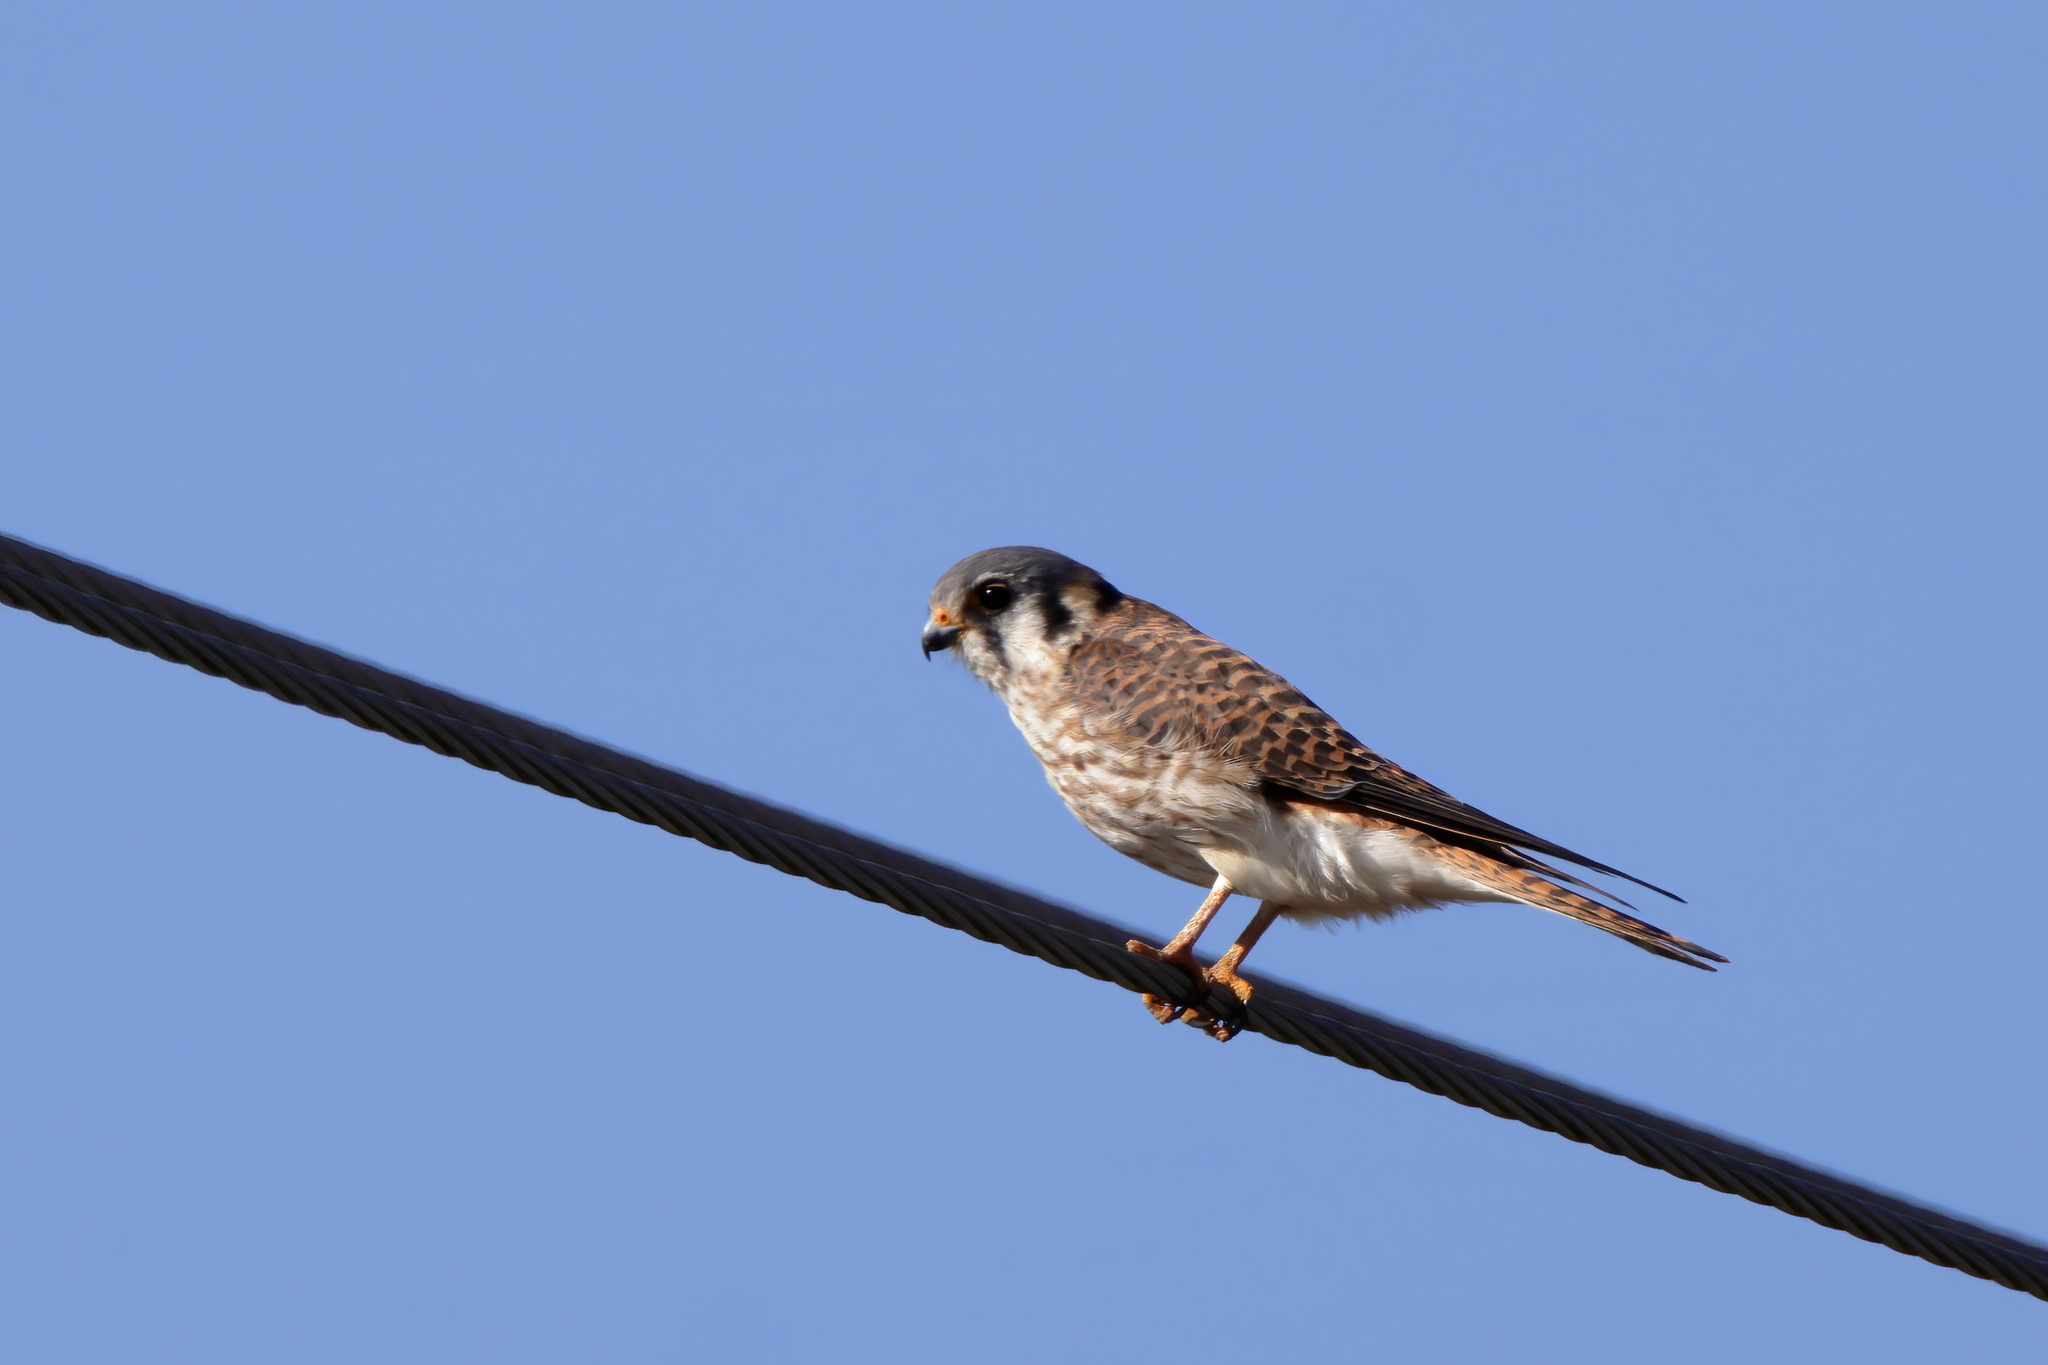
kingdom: Animalia
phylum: Chordata
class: Aves
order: Falconiformes
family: Falconidae
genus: Falco
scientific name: Falco sparverius
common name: American kestrel
